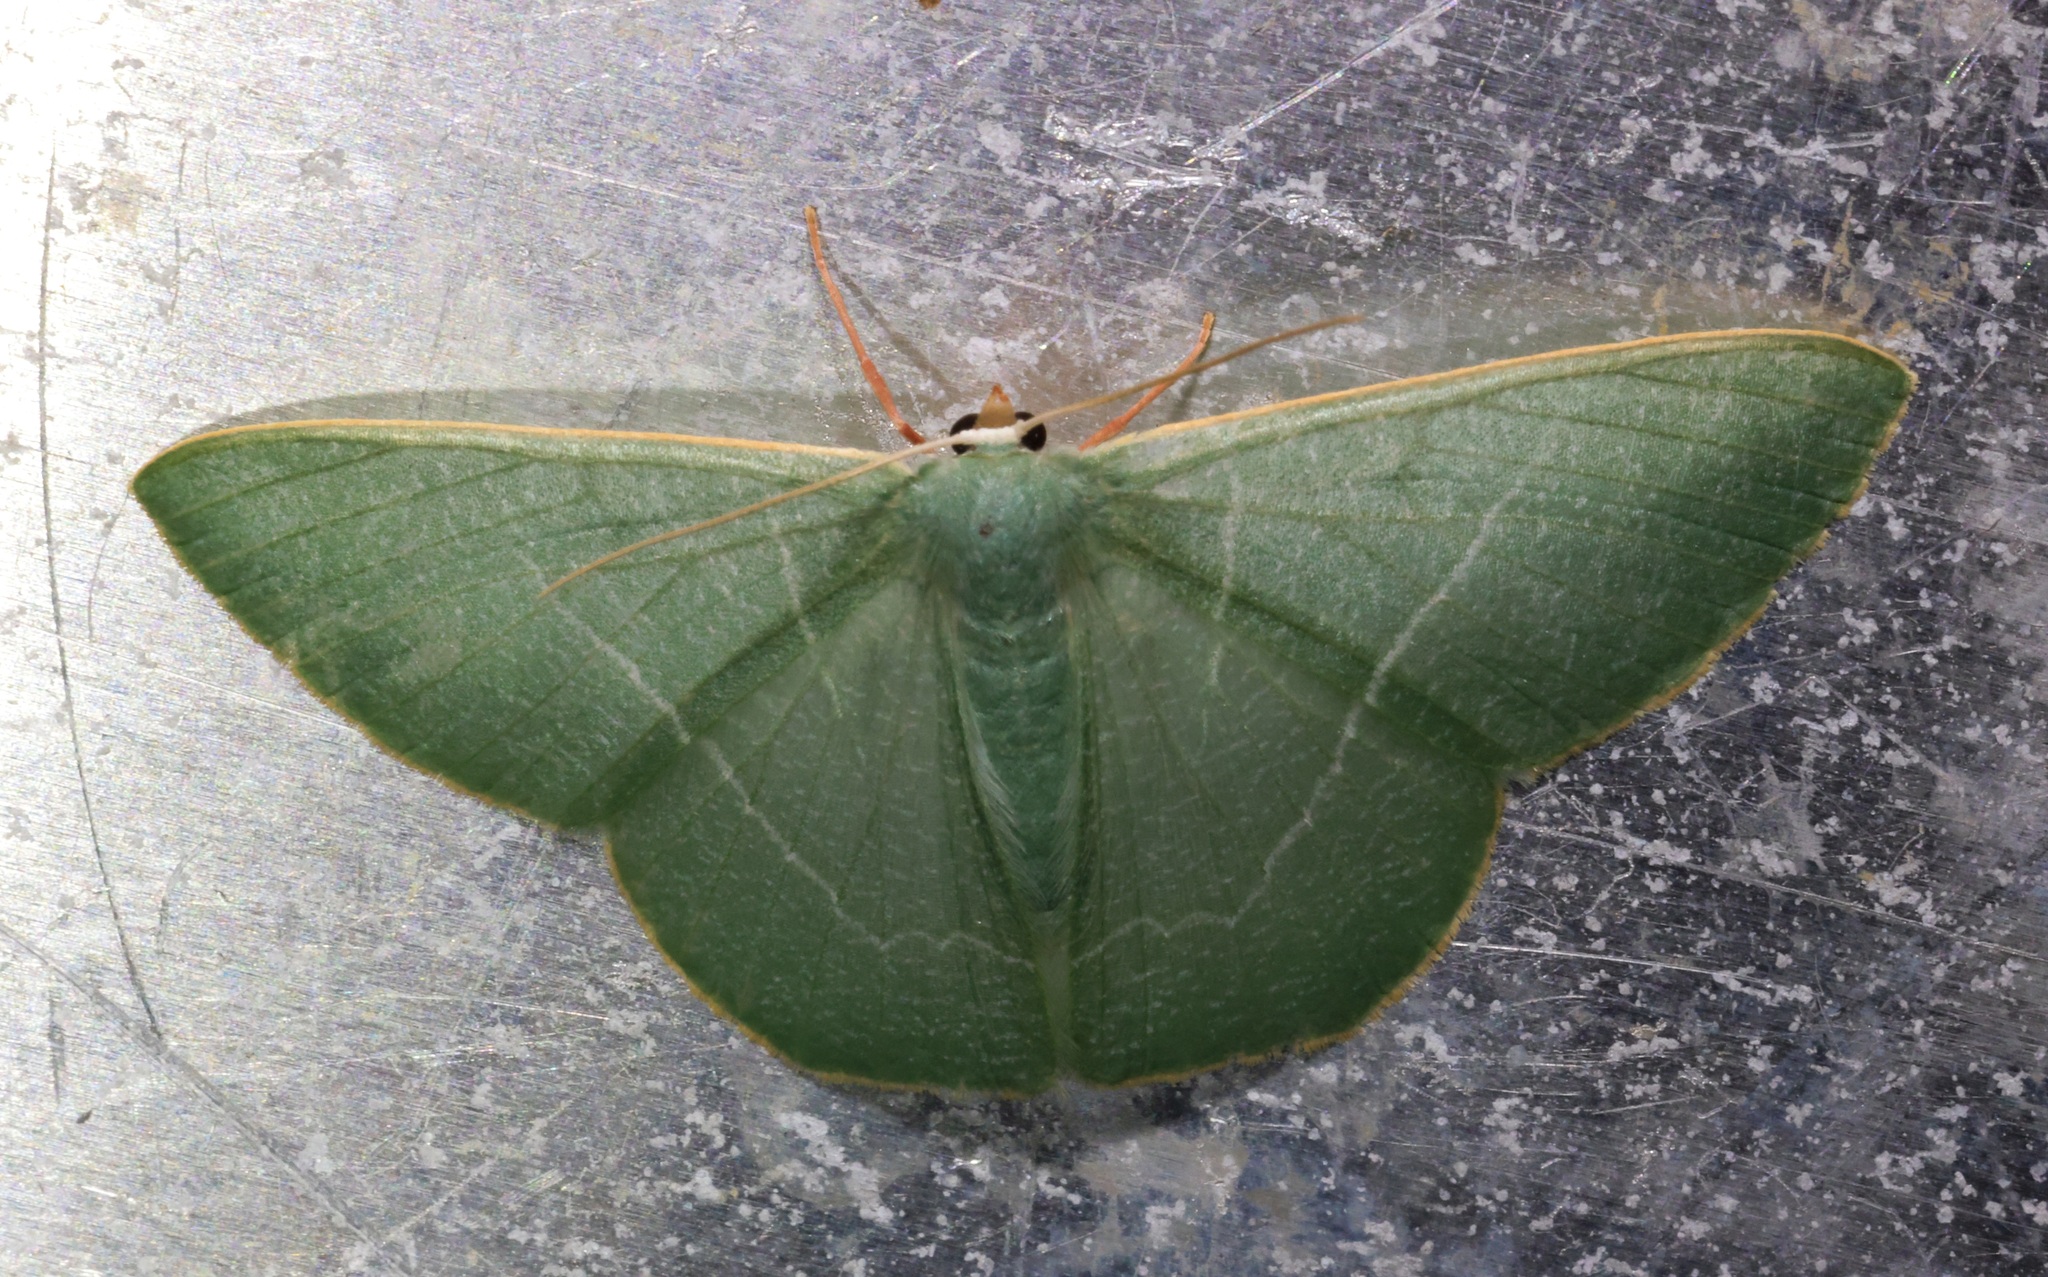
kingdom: Animalia
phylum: Arthropoda
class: Insecta
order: Lepidoptera
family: Geometridae
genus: Pelagodes
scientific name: Pelagodes antiquadraria
